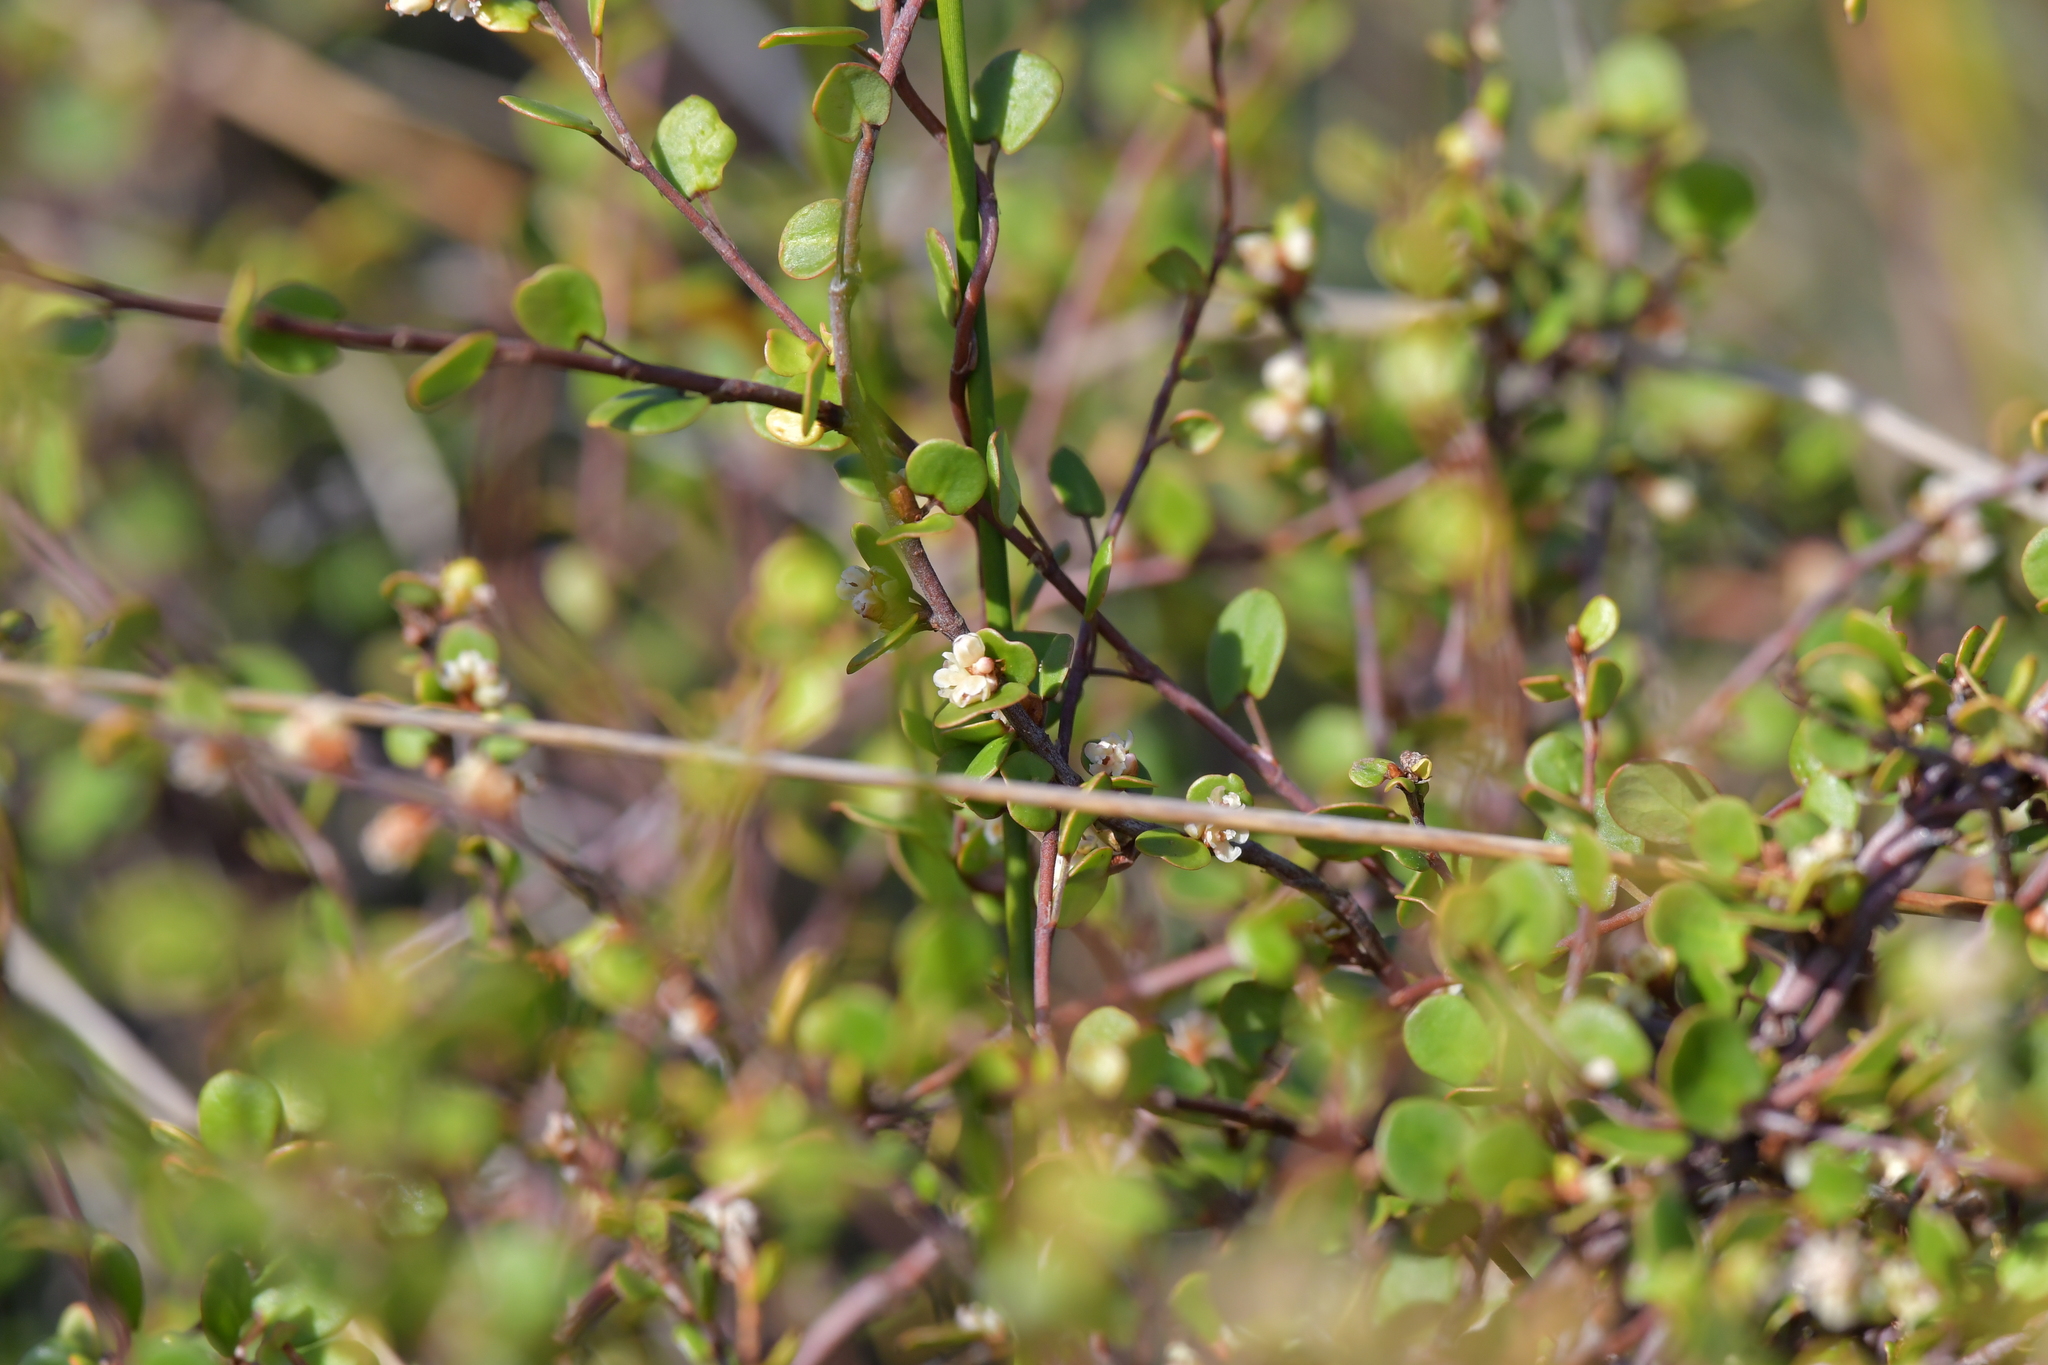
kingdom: Plantae
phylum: Tracheophyta
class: Magnoliopsida
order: Caryophyllales
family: Polygonaceae
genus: Muehlenbeckia
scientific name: Muehlenbeckia complexa
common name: Wireplant
